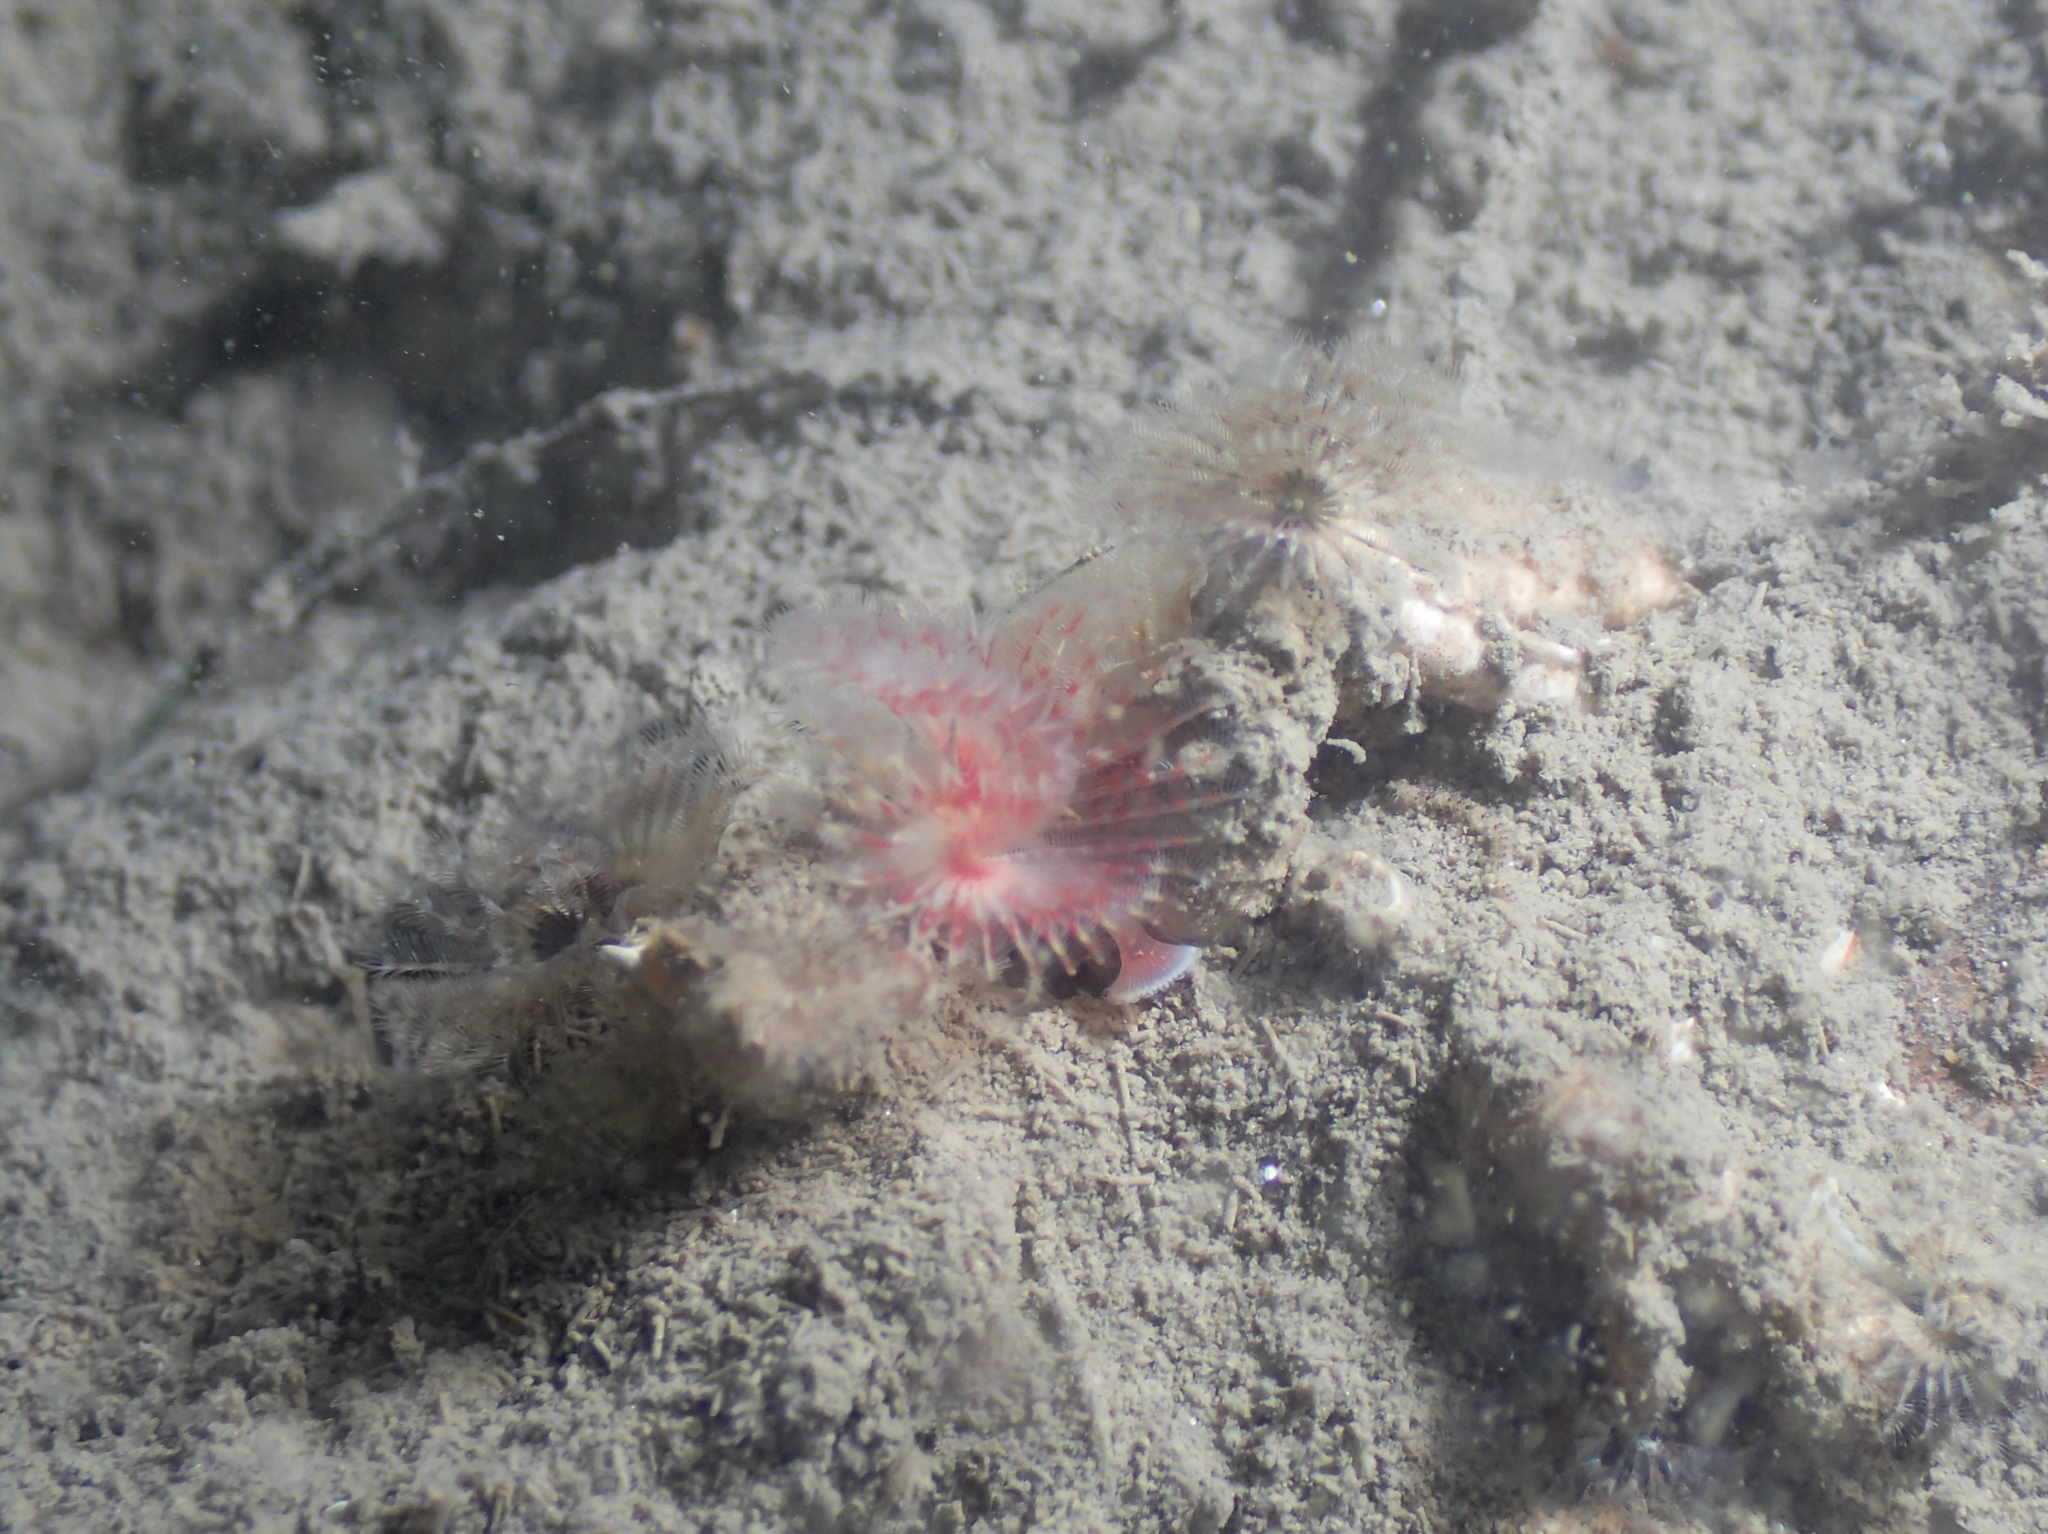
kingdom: Animalia
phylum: Annelida
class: Polychaeta
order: Sabellida
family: Serpulidae
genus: Serpula
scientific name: Serpula vermicularis
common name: Calcareous tubeworm
